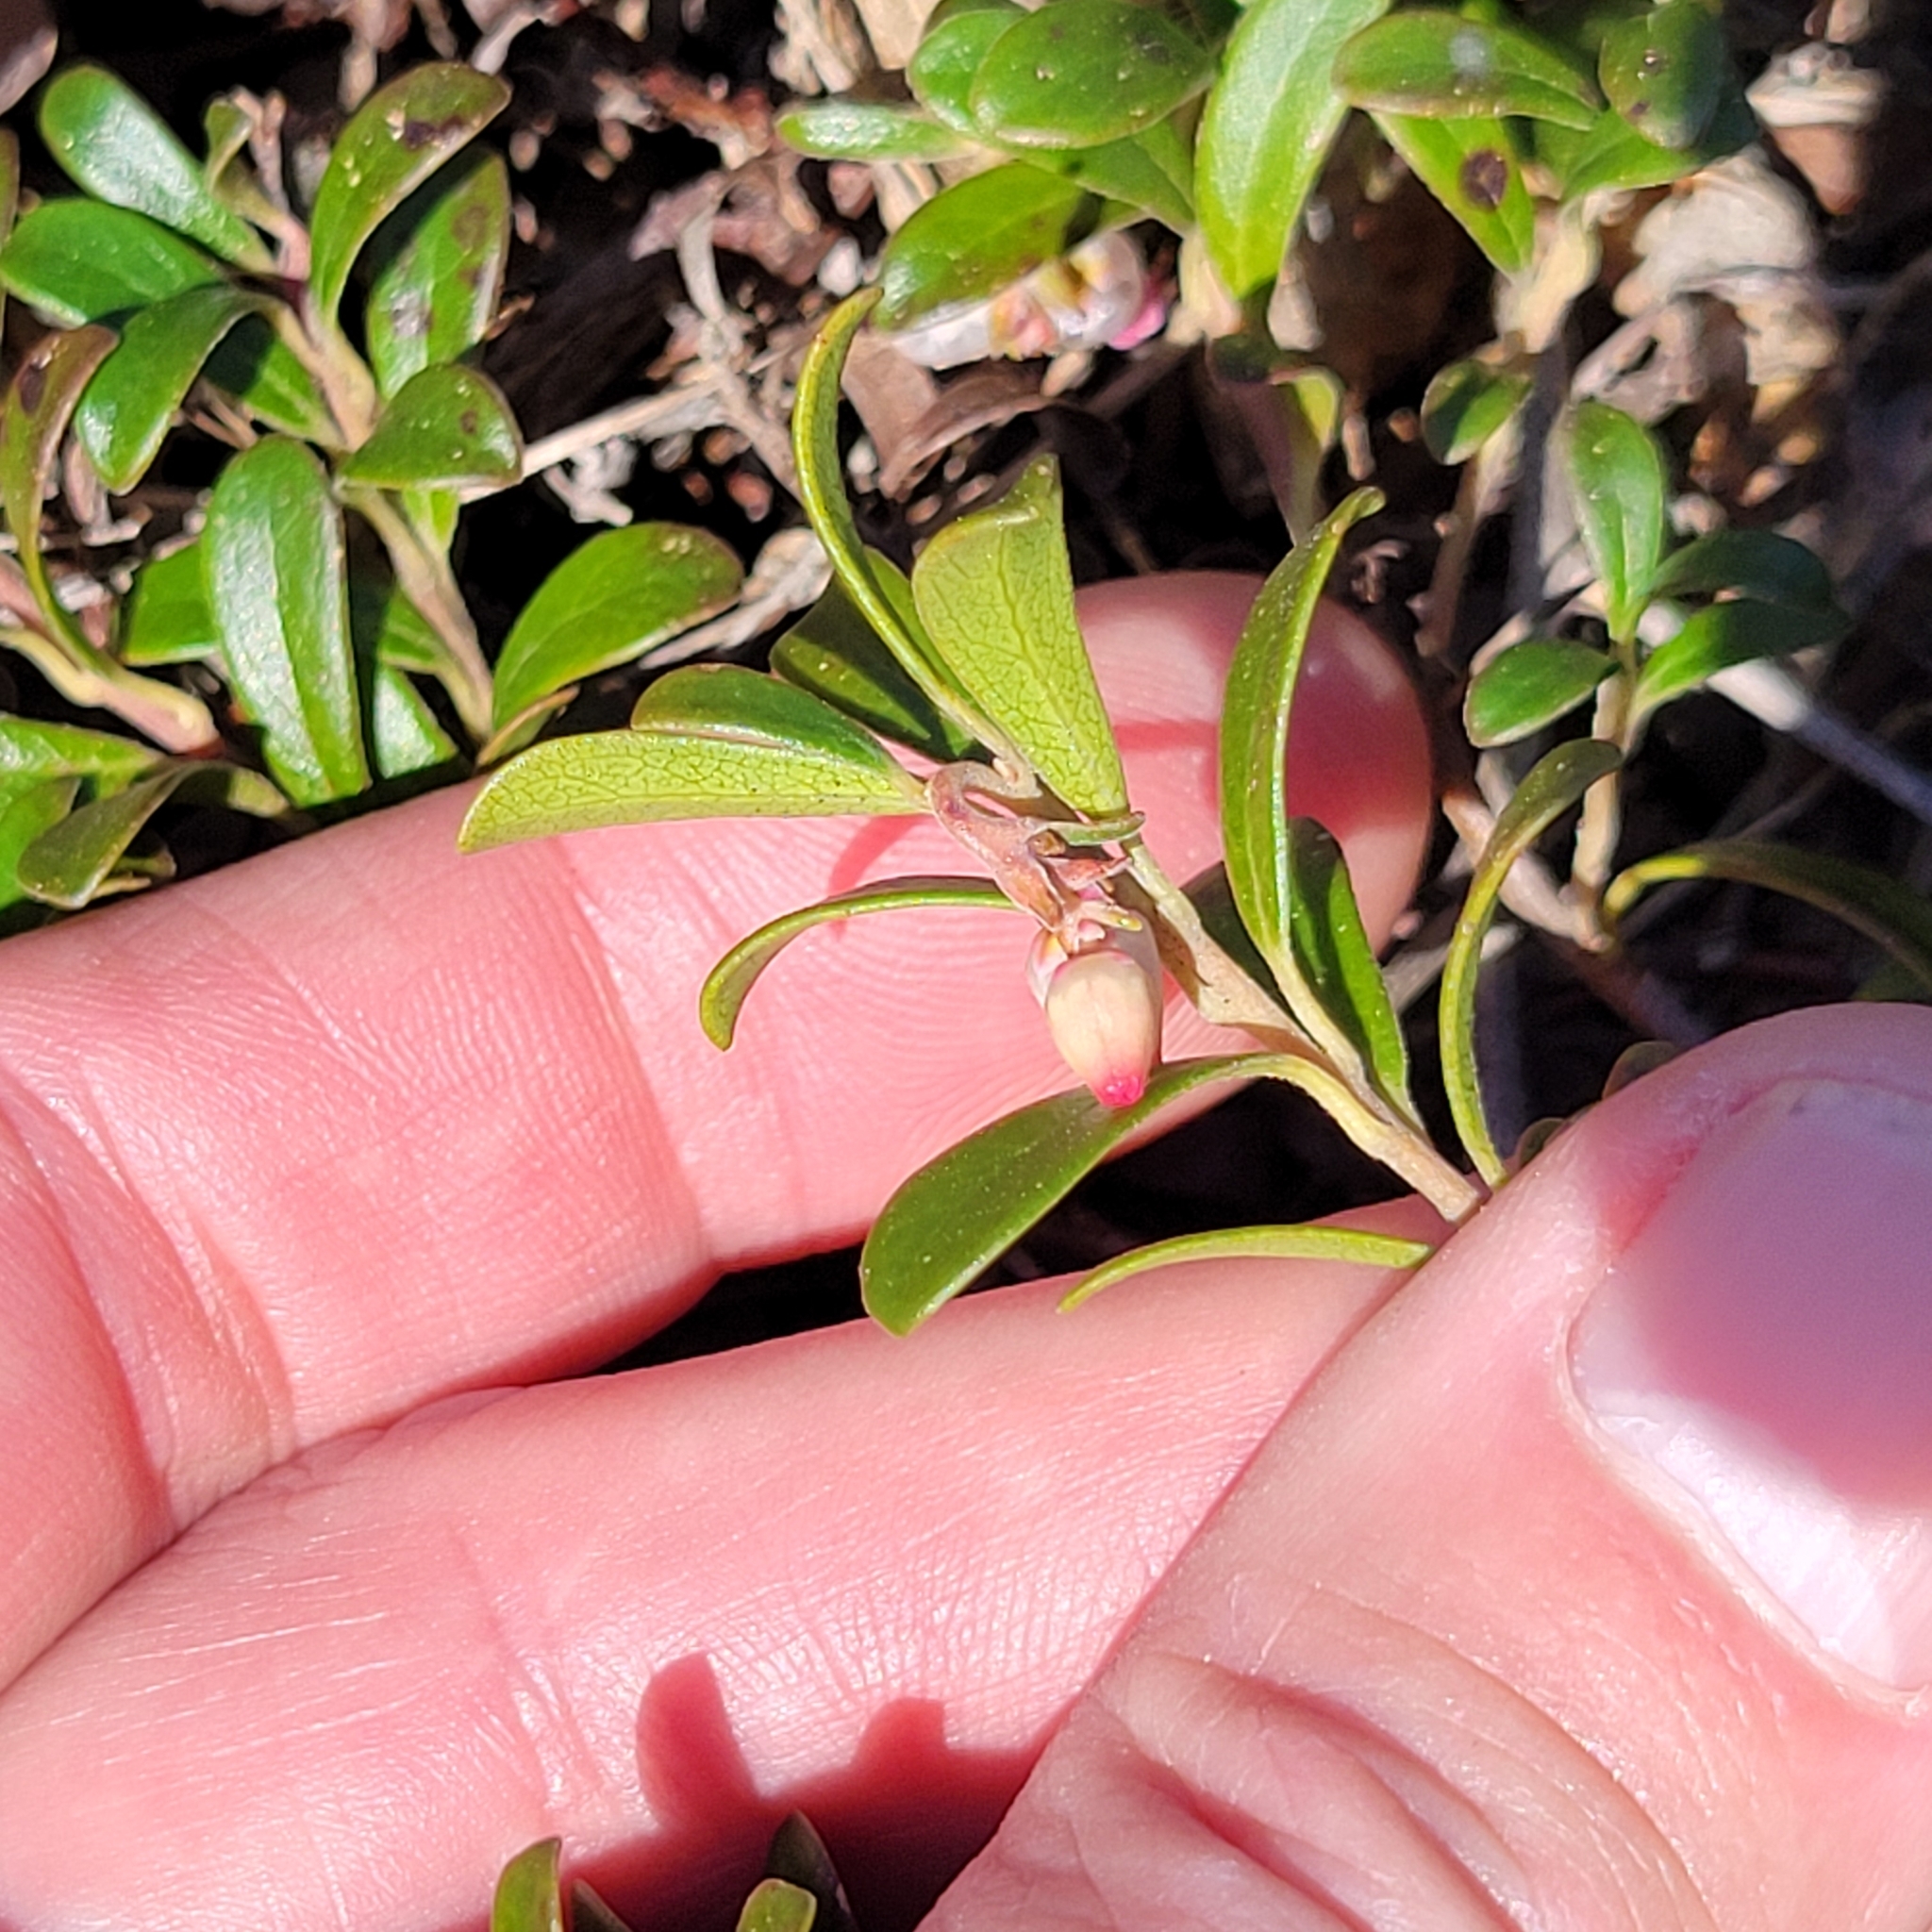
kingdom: Plantae
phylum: Tracheophyta
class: Magnoliopsida
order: Ericales
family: Ericaceae
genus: Arctostaphylos
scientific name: Arctostaphylos uva-ursi
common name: Bearberry
